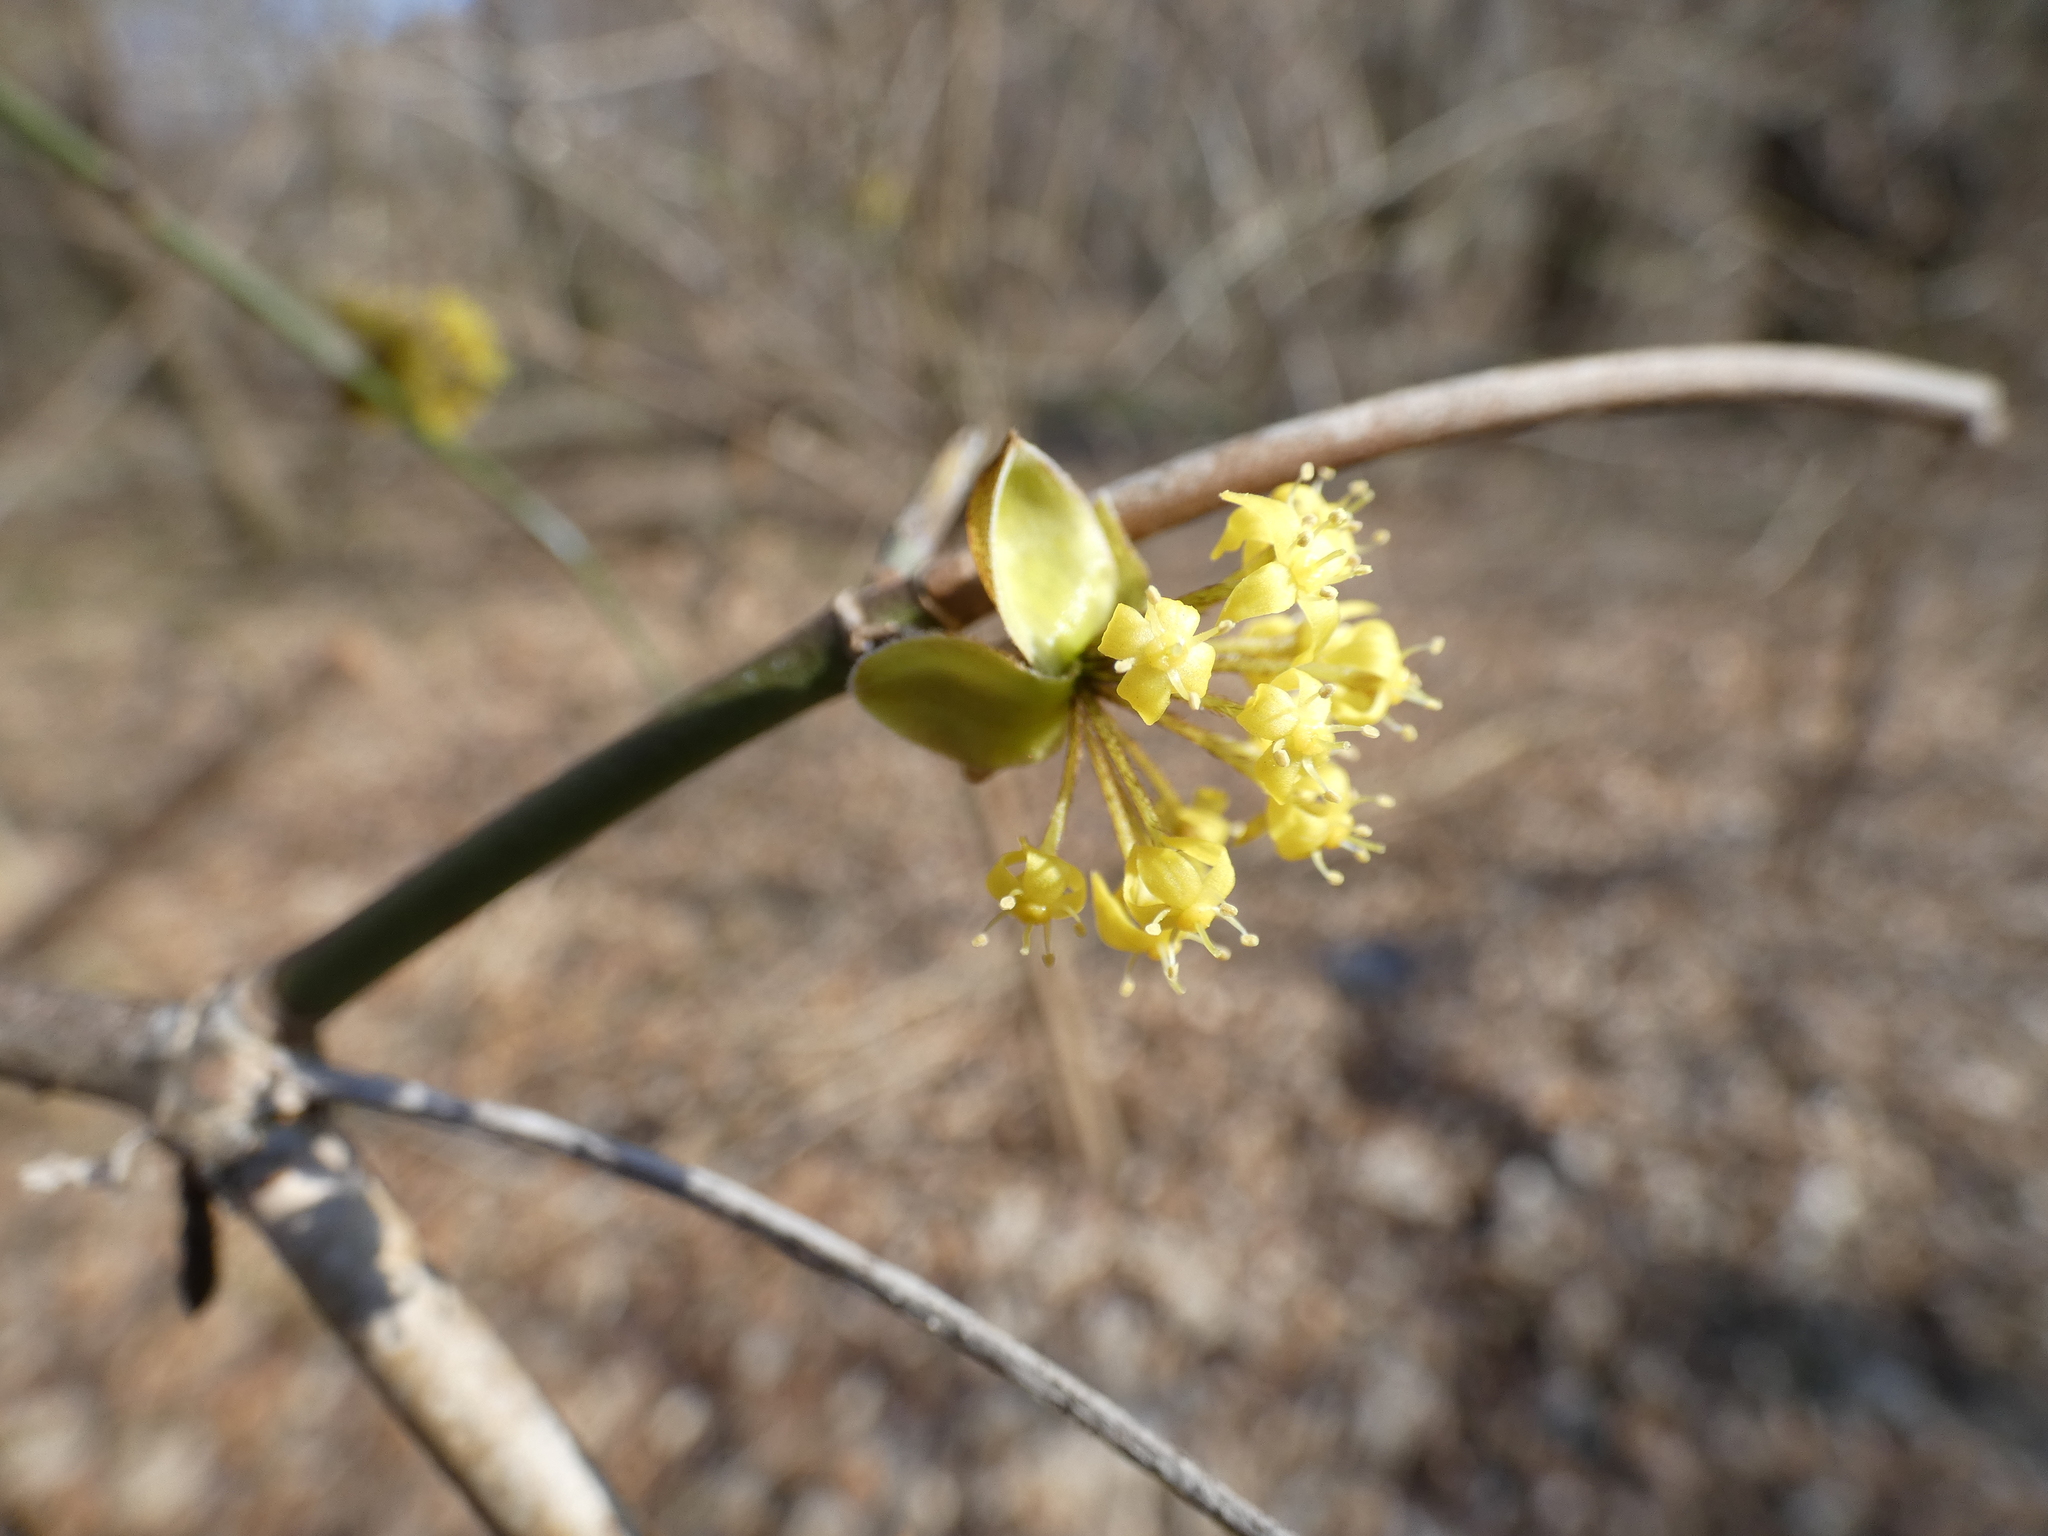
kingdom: Plantae
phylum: Tracheophyta
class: Magnoliopsida
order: Cornales
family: Cornaceae
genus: Cornus
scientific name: Cornus mas
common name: Cornelian-cherry
